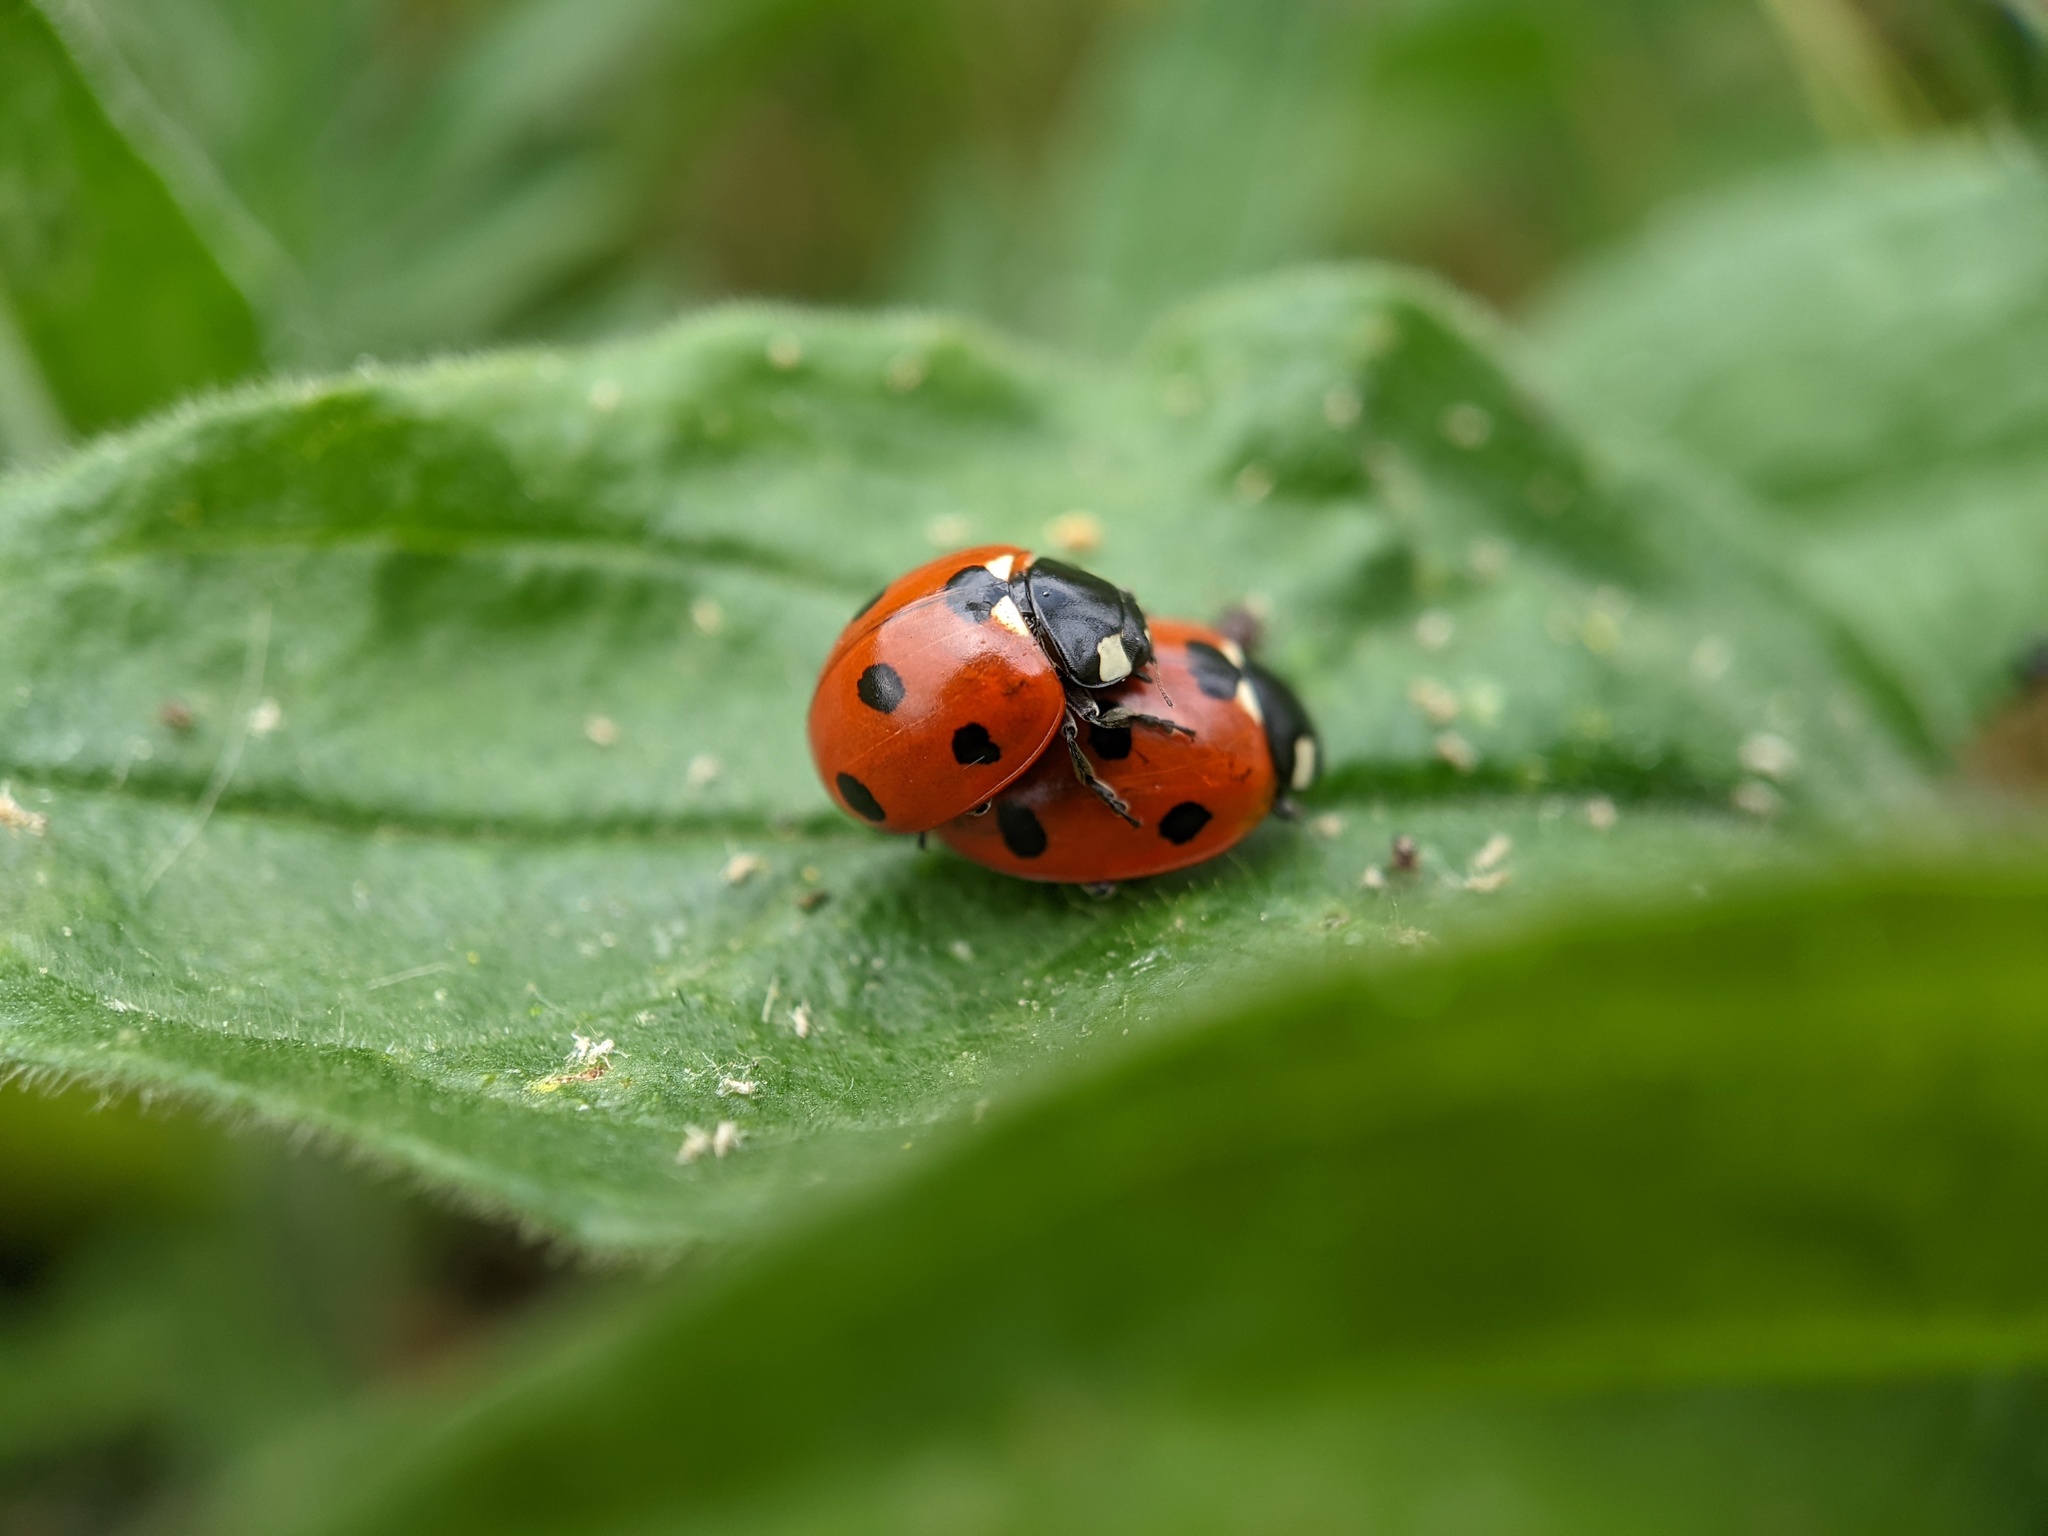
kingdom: Animalia
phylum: Arthropoda
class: Insecta
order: Coleoptera
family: Coccinellidae
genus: Coccinella
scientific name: Coccinella septempunctata
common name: Sevenspotted lady beetle
